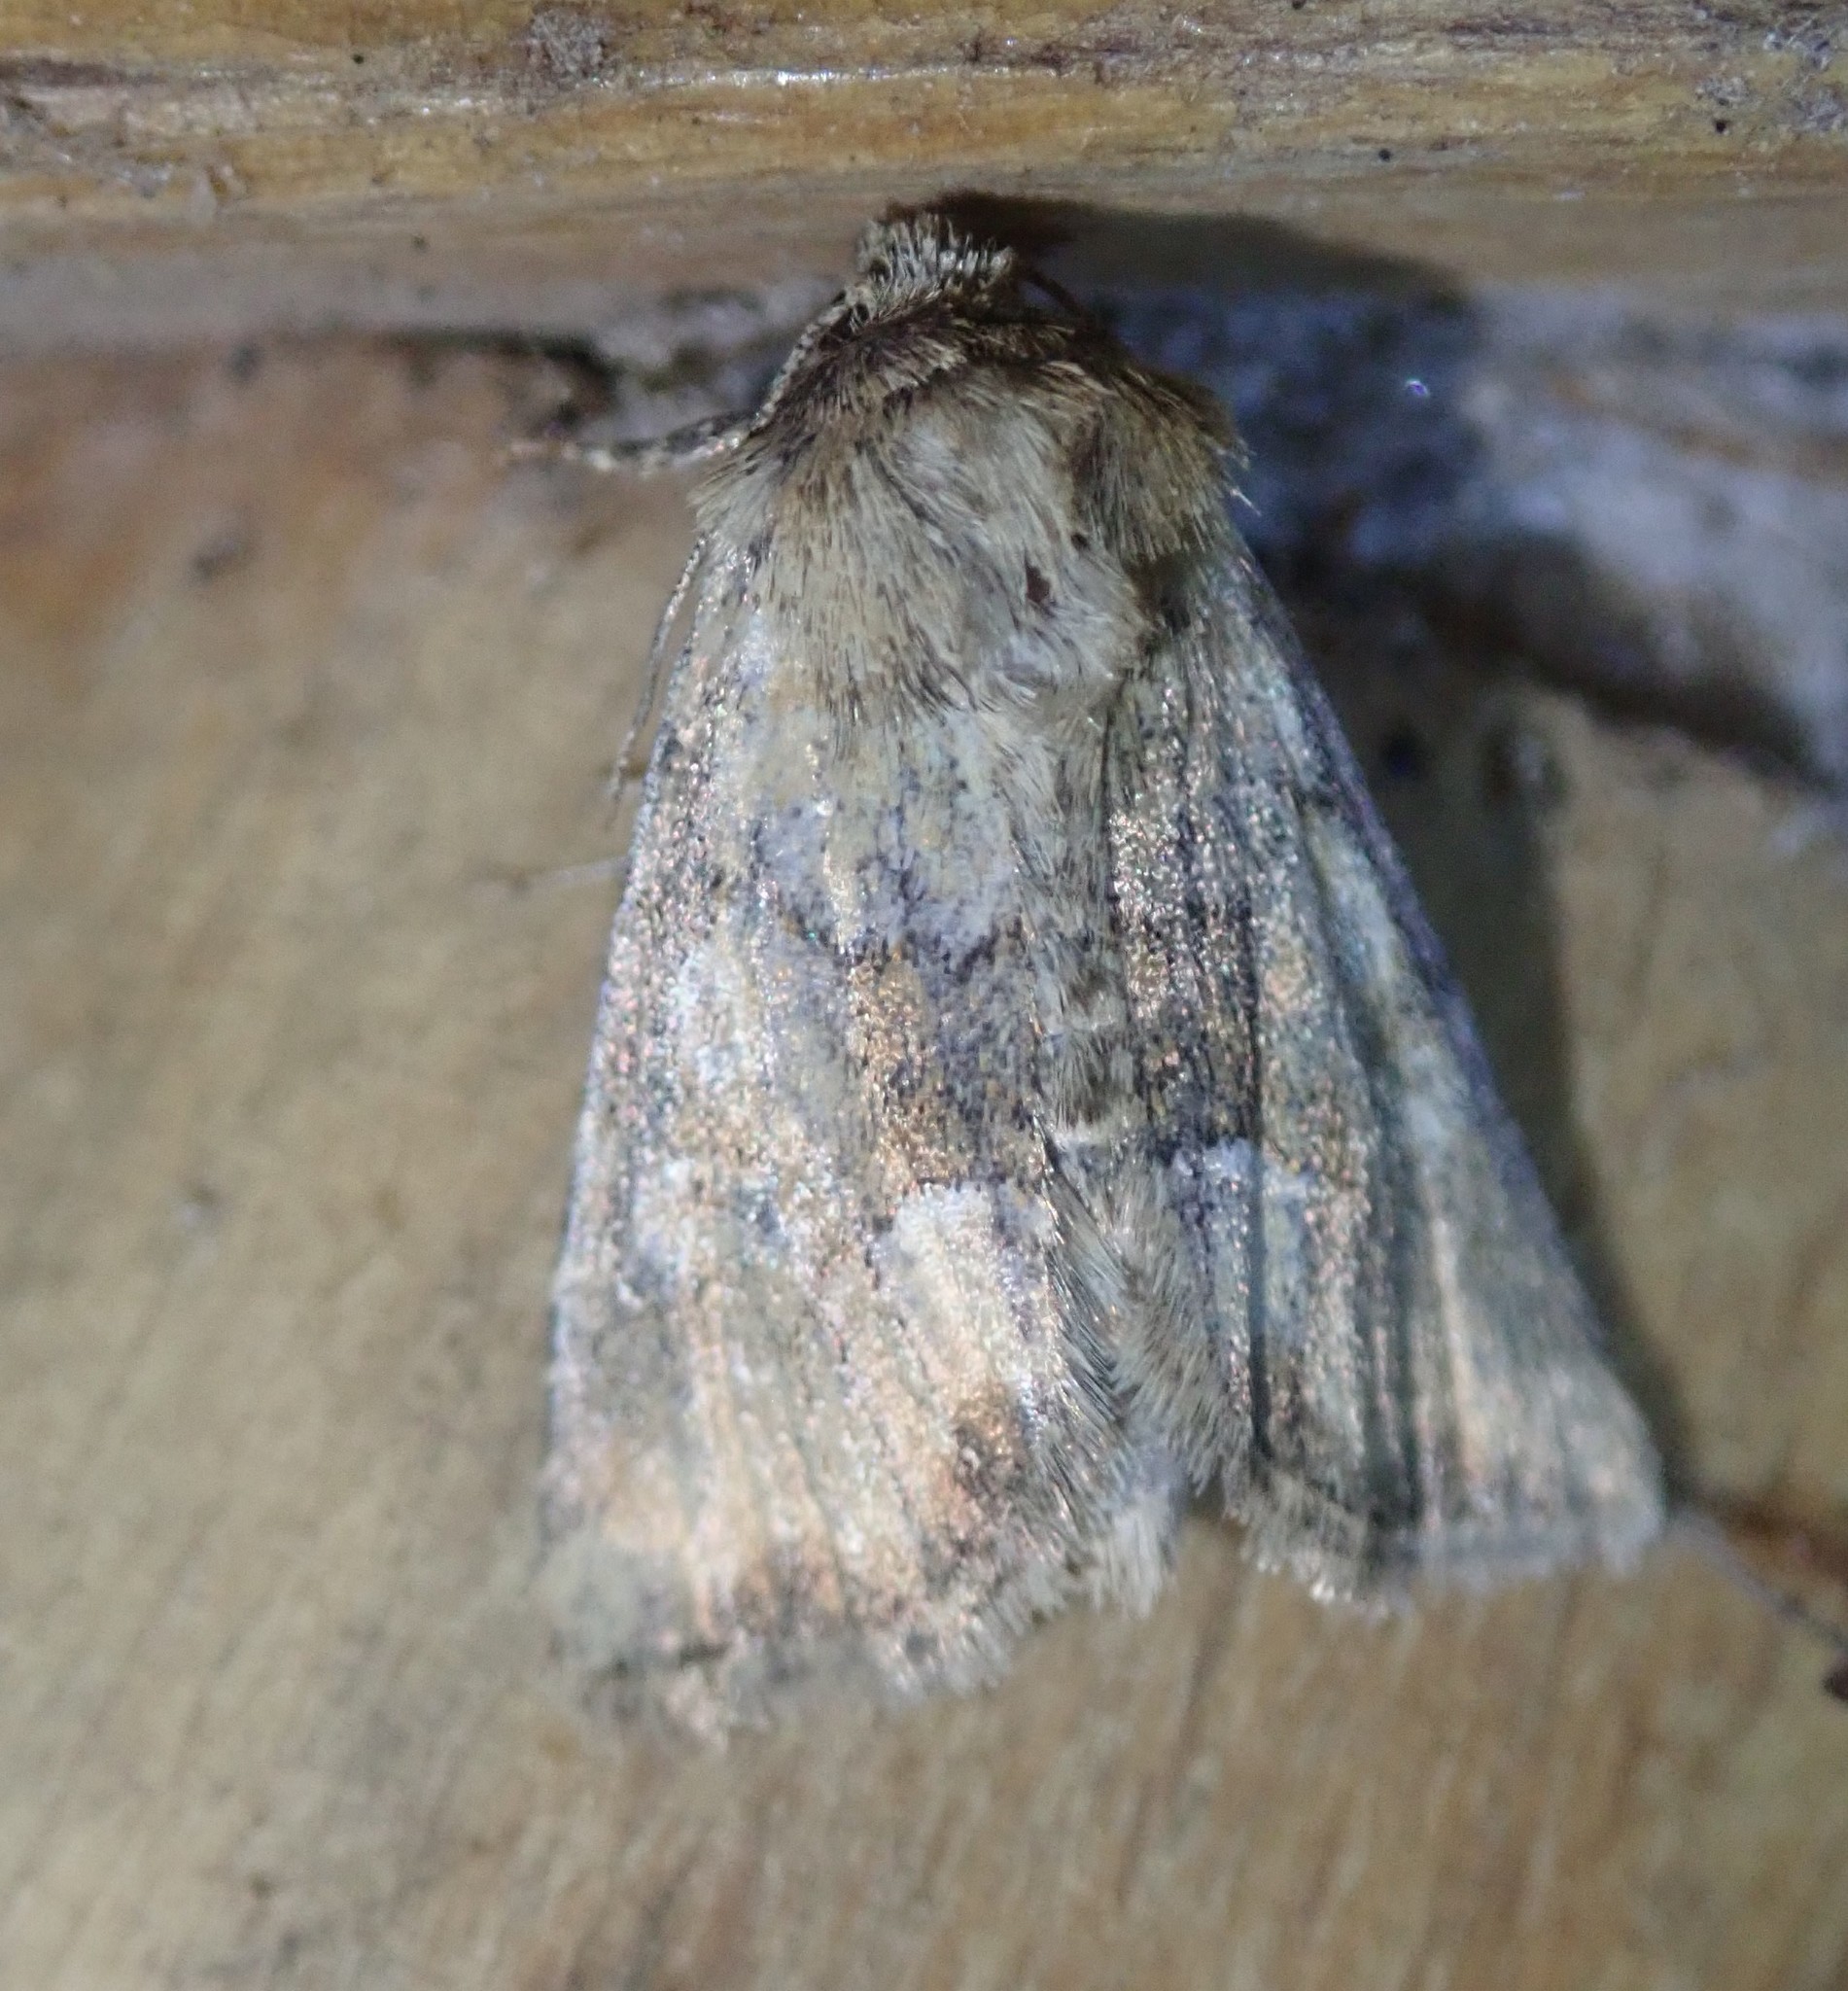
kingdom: Animalia
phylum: Arthropoda
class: Insecta
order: Lepidoptera
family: Noctuidae
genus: Oligia
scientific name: Oligia fasciuncula
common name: Middle-barred minor
